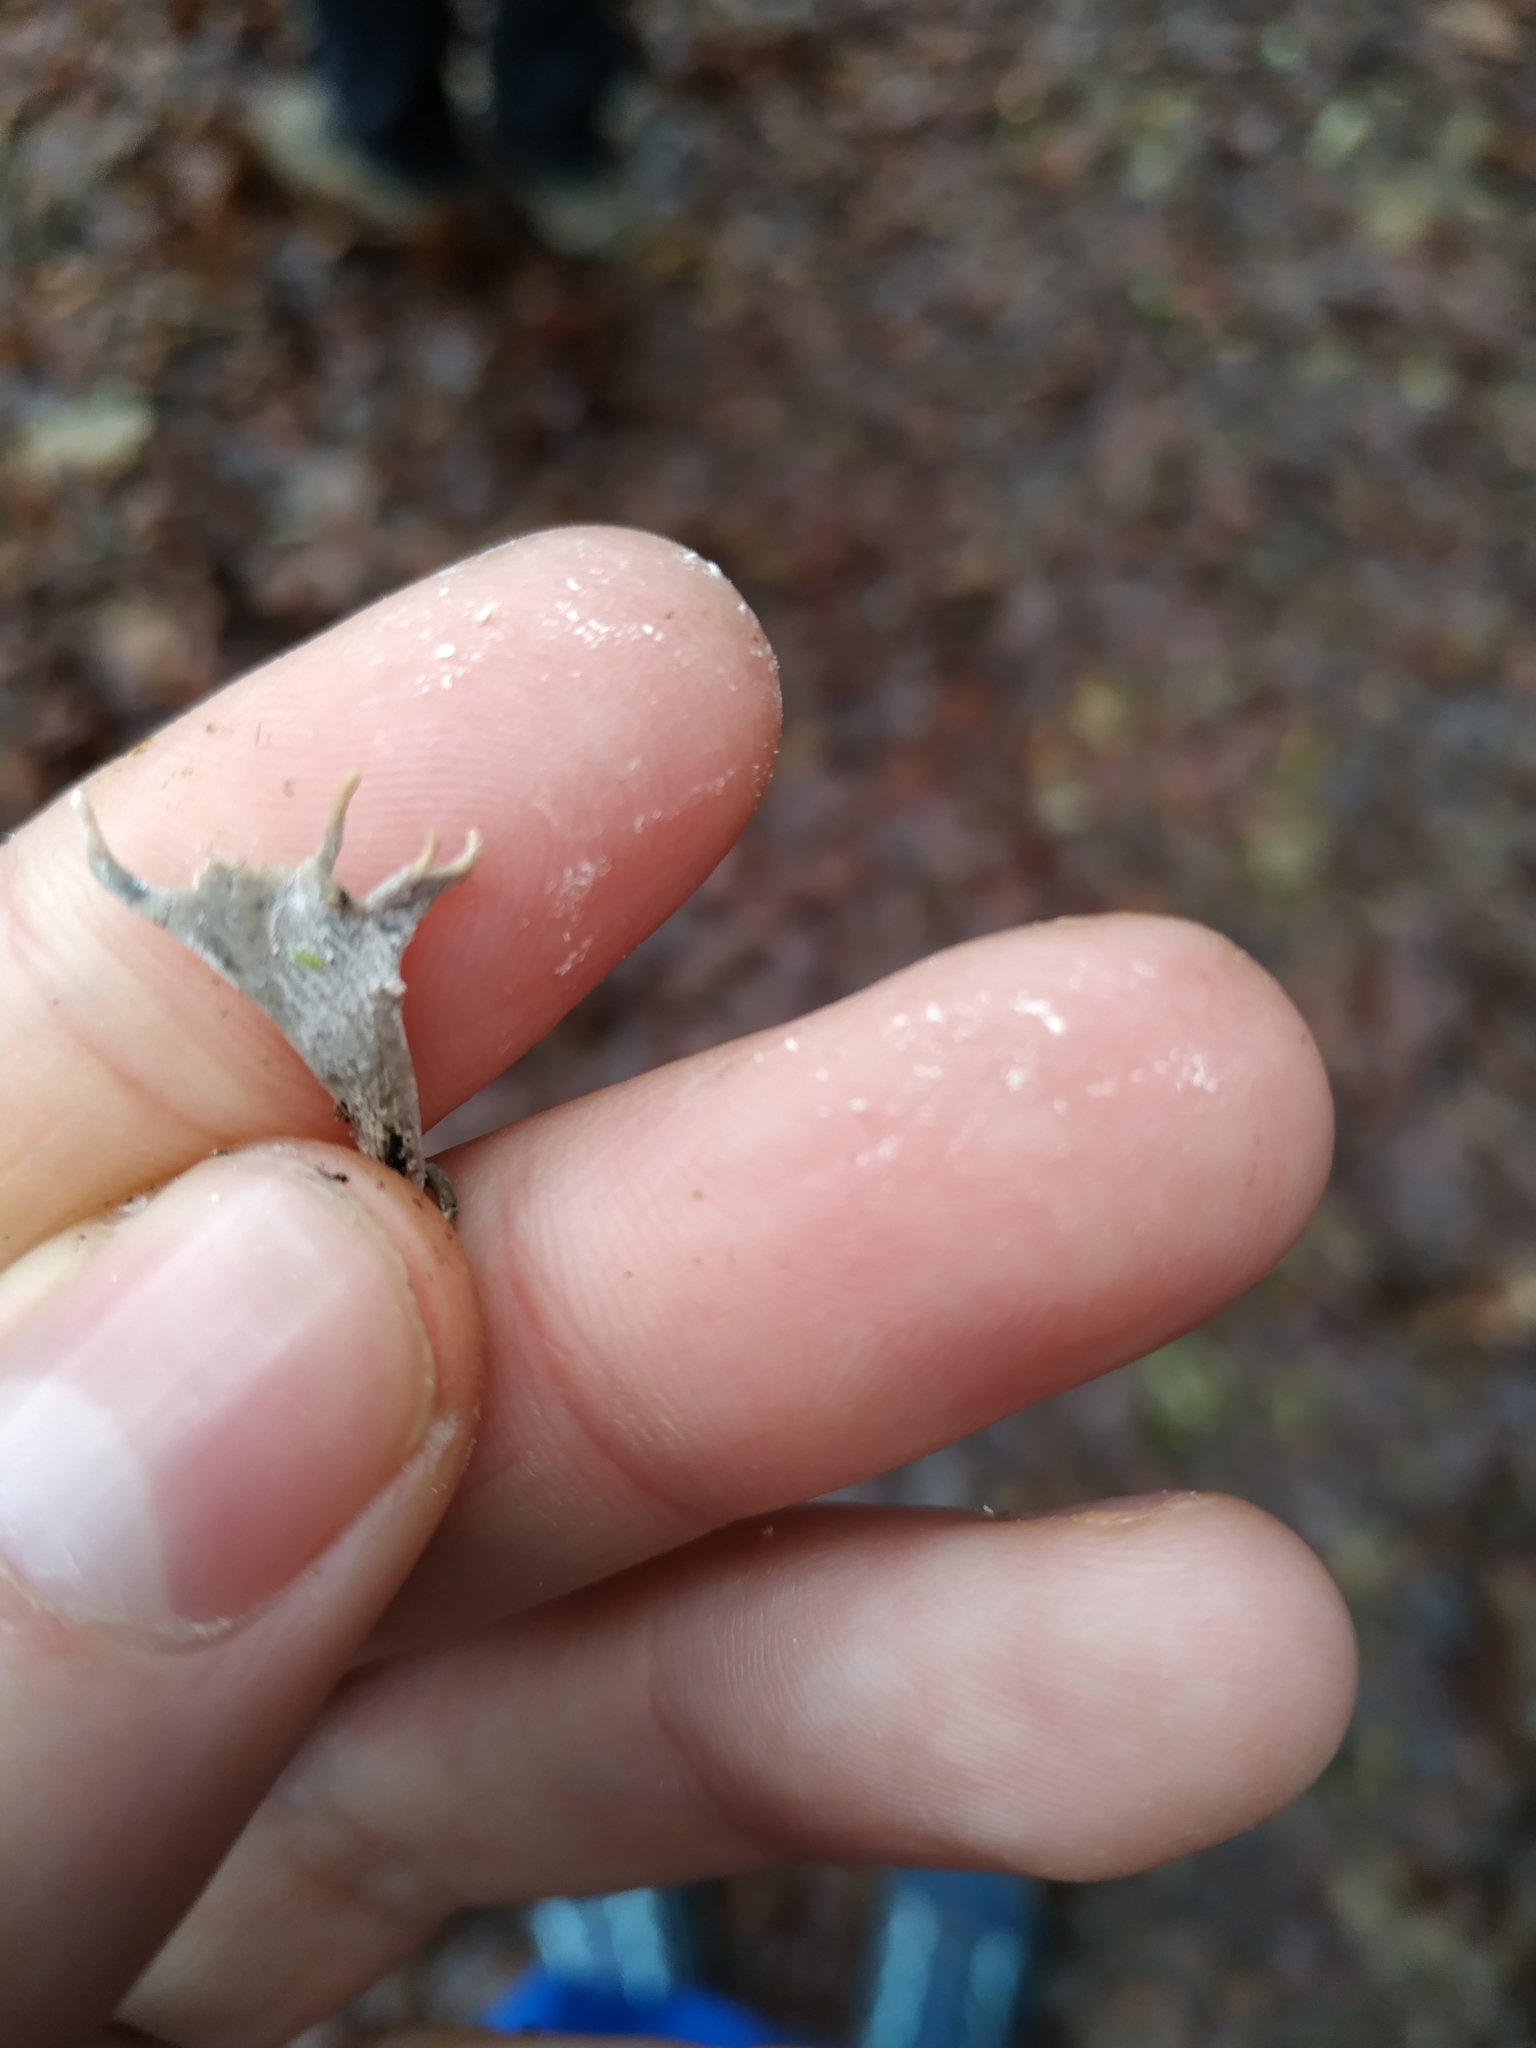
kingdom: Fungi
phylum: Ascomycota
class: Sordariomycetes
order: Xylariales
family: Xylariaceae
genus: Xylaria
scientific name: Xylaria hypoxylon
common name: Candle-snuff fungus
